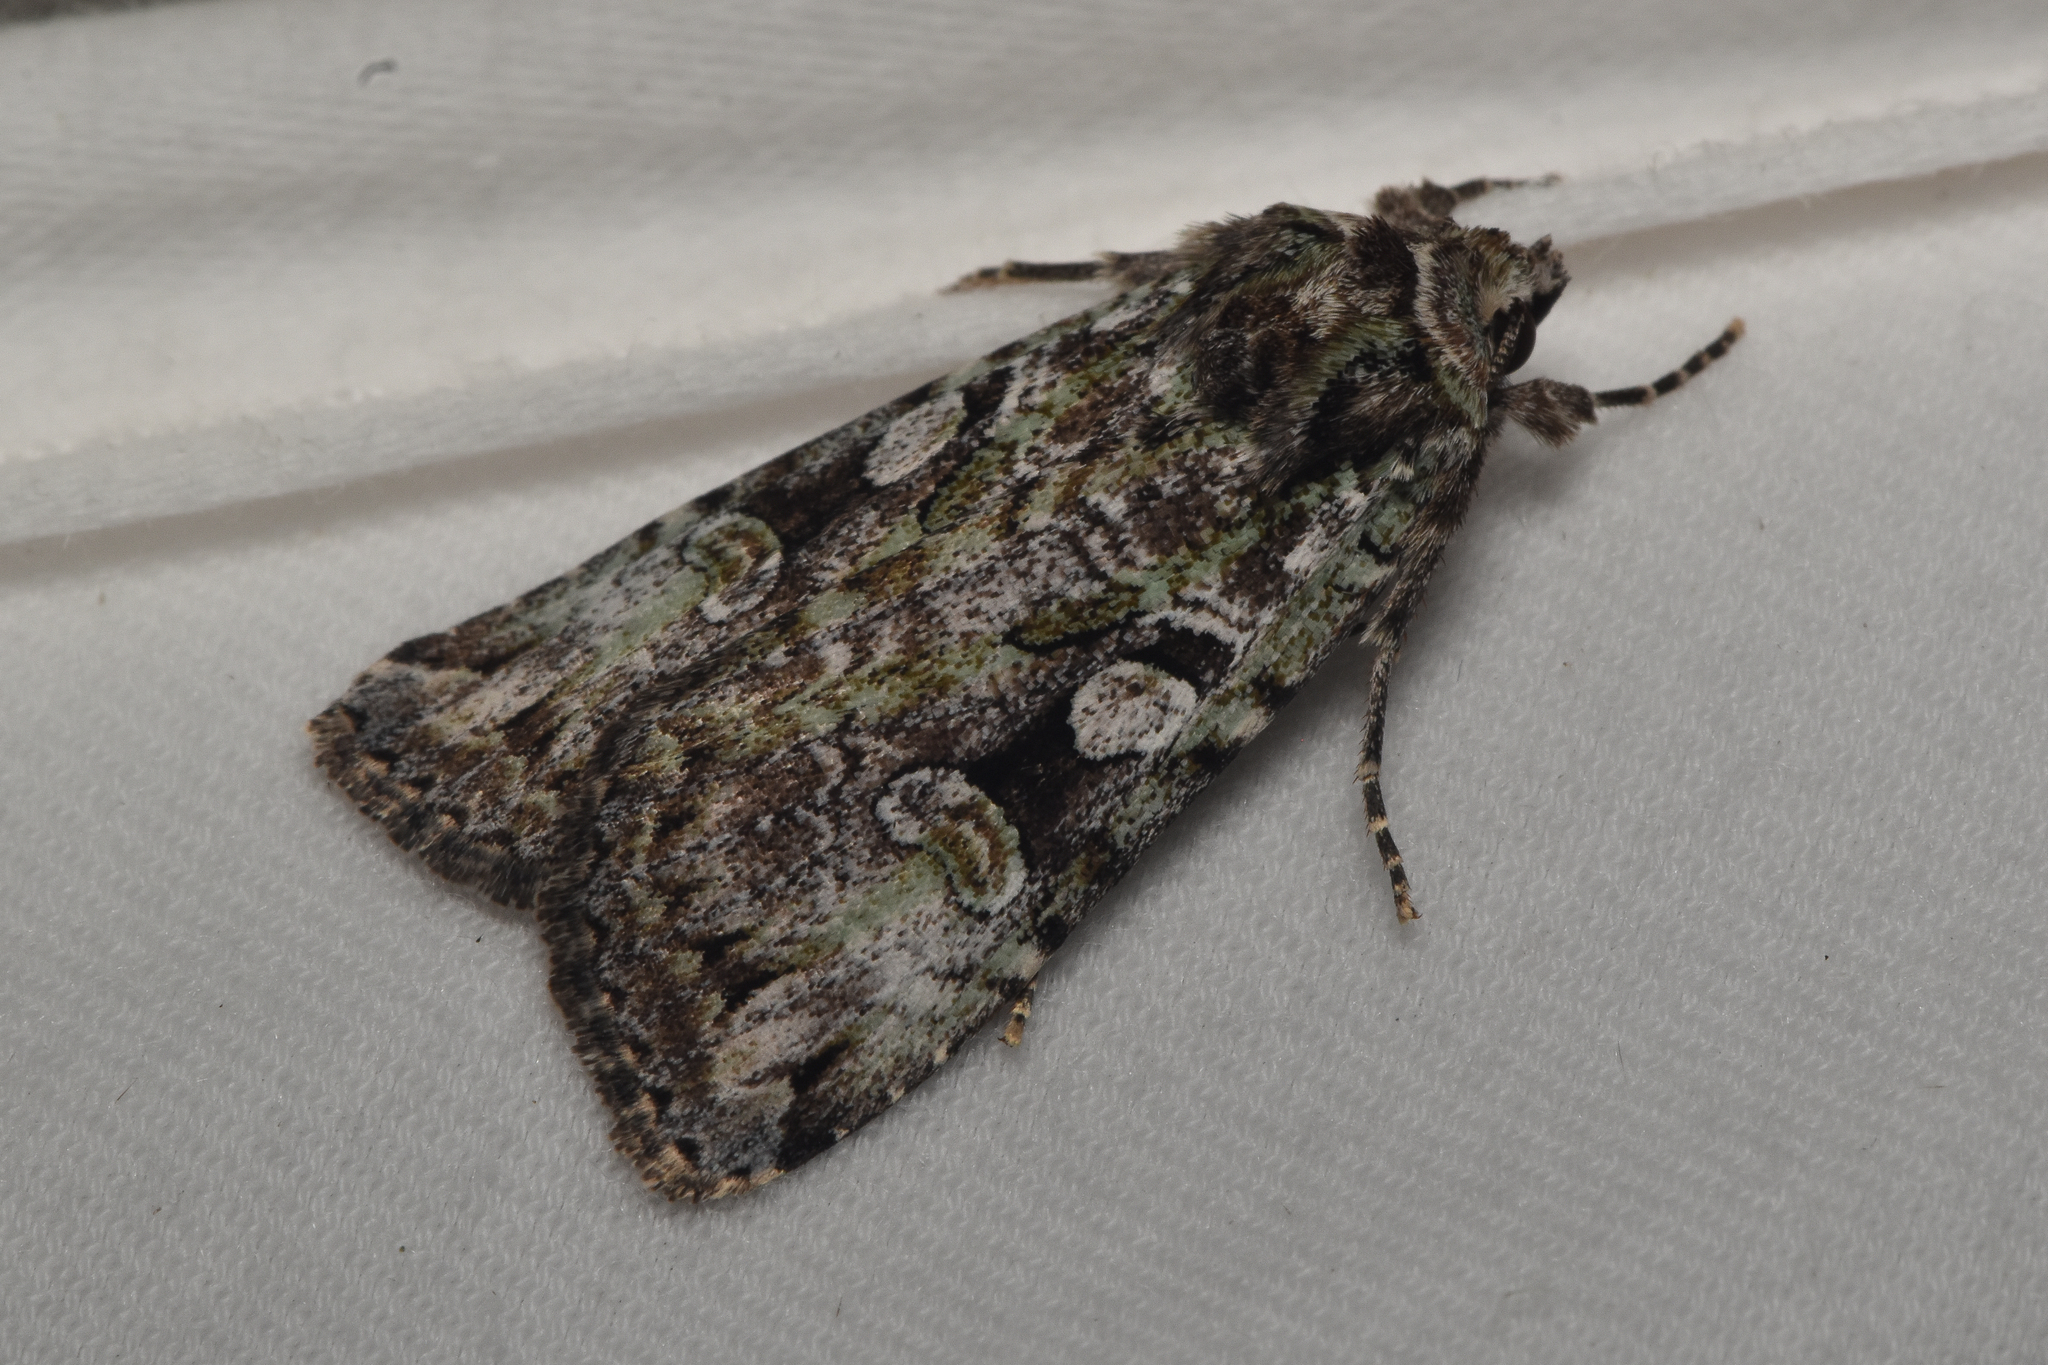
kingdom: Animalia
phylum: Arthropoda
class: Insecta
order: Lepidoptera
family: Noctuidae
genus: Anaplectoides
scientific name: Anaplectoides pressus
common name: Dappled dart
